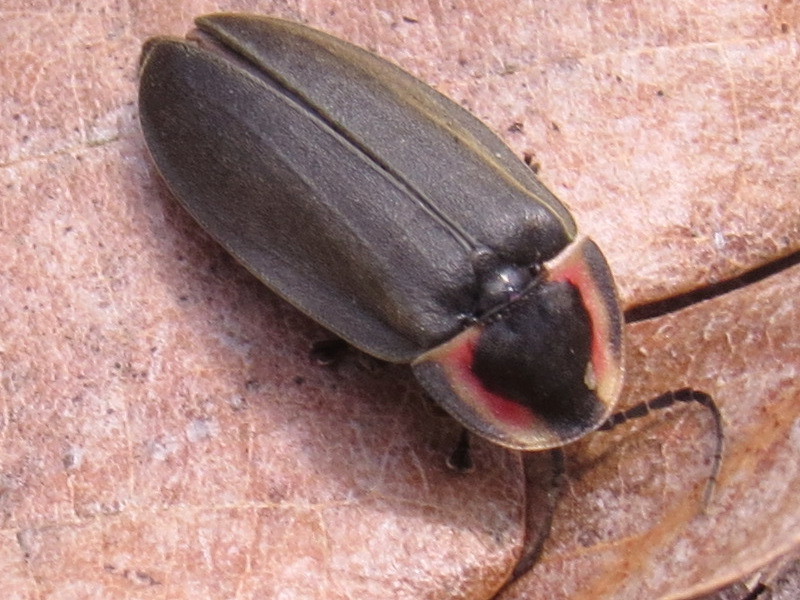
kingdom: Animalia
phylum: Arthropoda
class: Insecta
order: Coleoptera
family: Lampyridae
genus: Photinus
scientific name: Photinus corrusca
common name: Winter firefly
